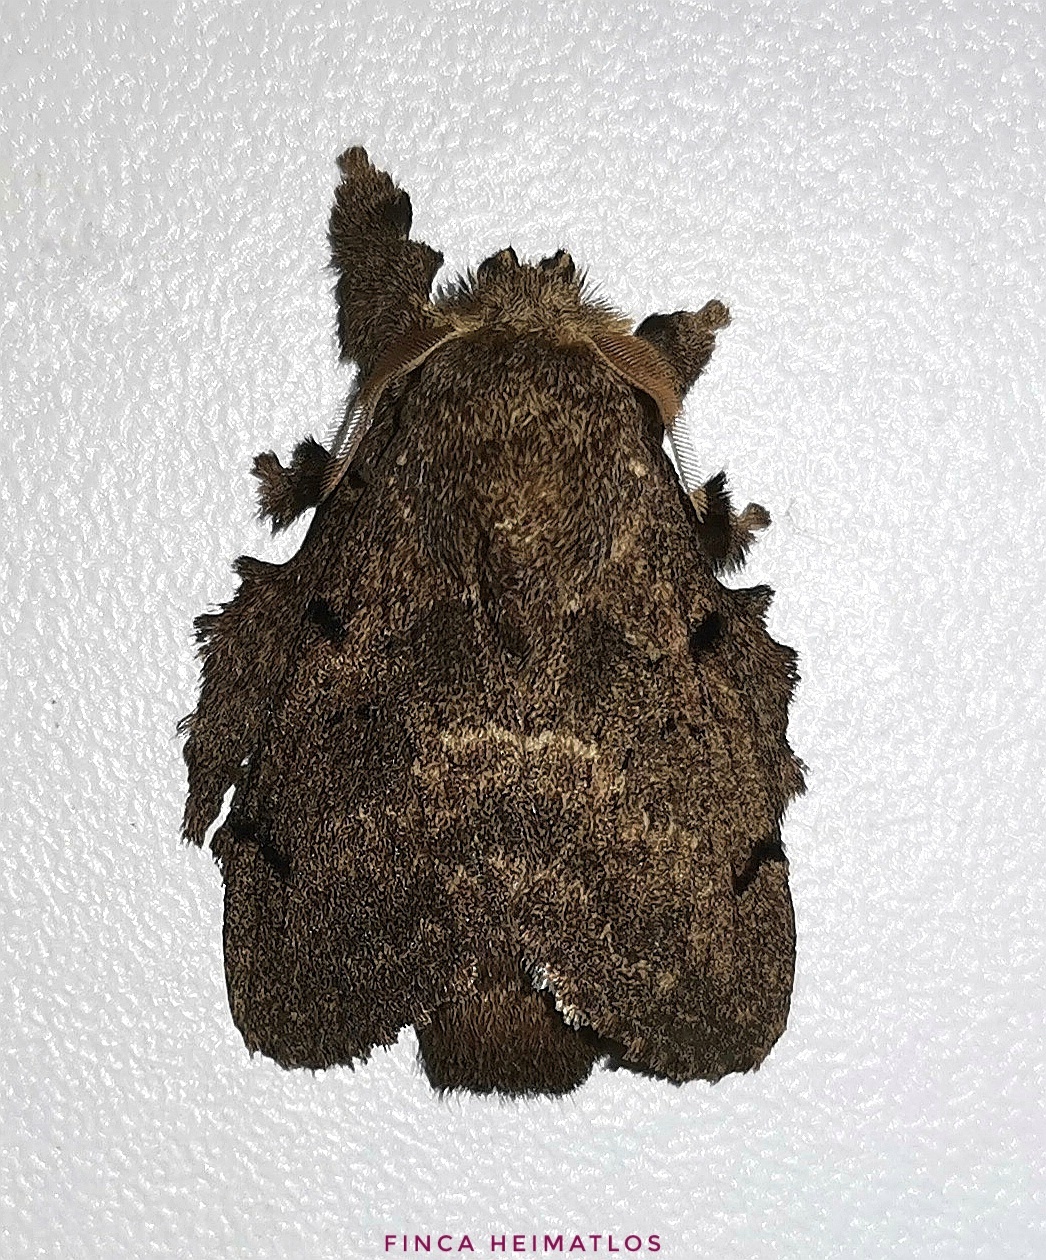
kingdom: Animalia
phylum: Arthropoda
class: Insecta
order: Lepidoptera
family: Lasiocampidae
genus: Euglyphis
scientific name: Euglyphis grammophora
